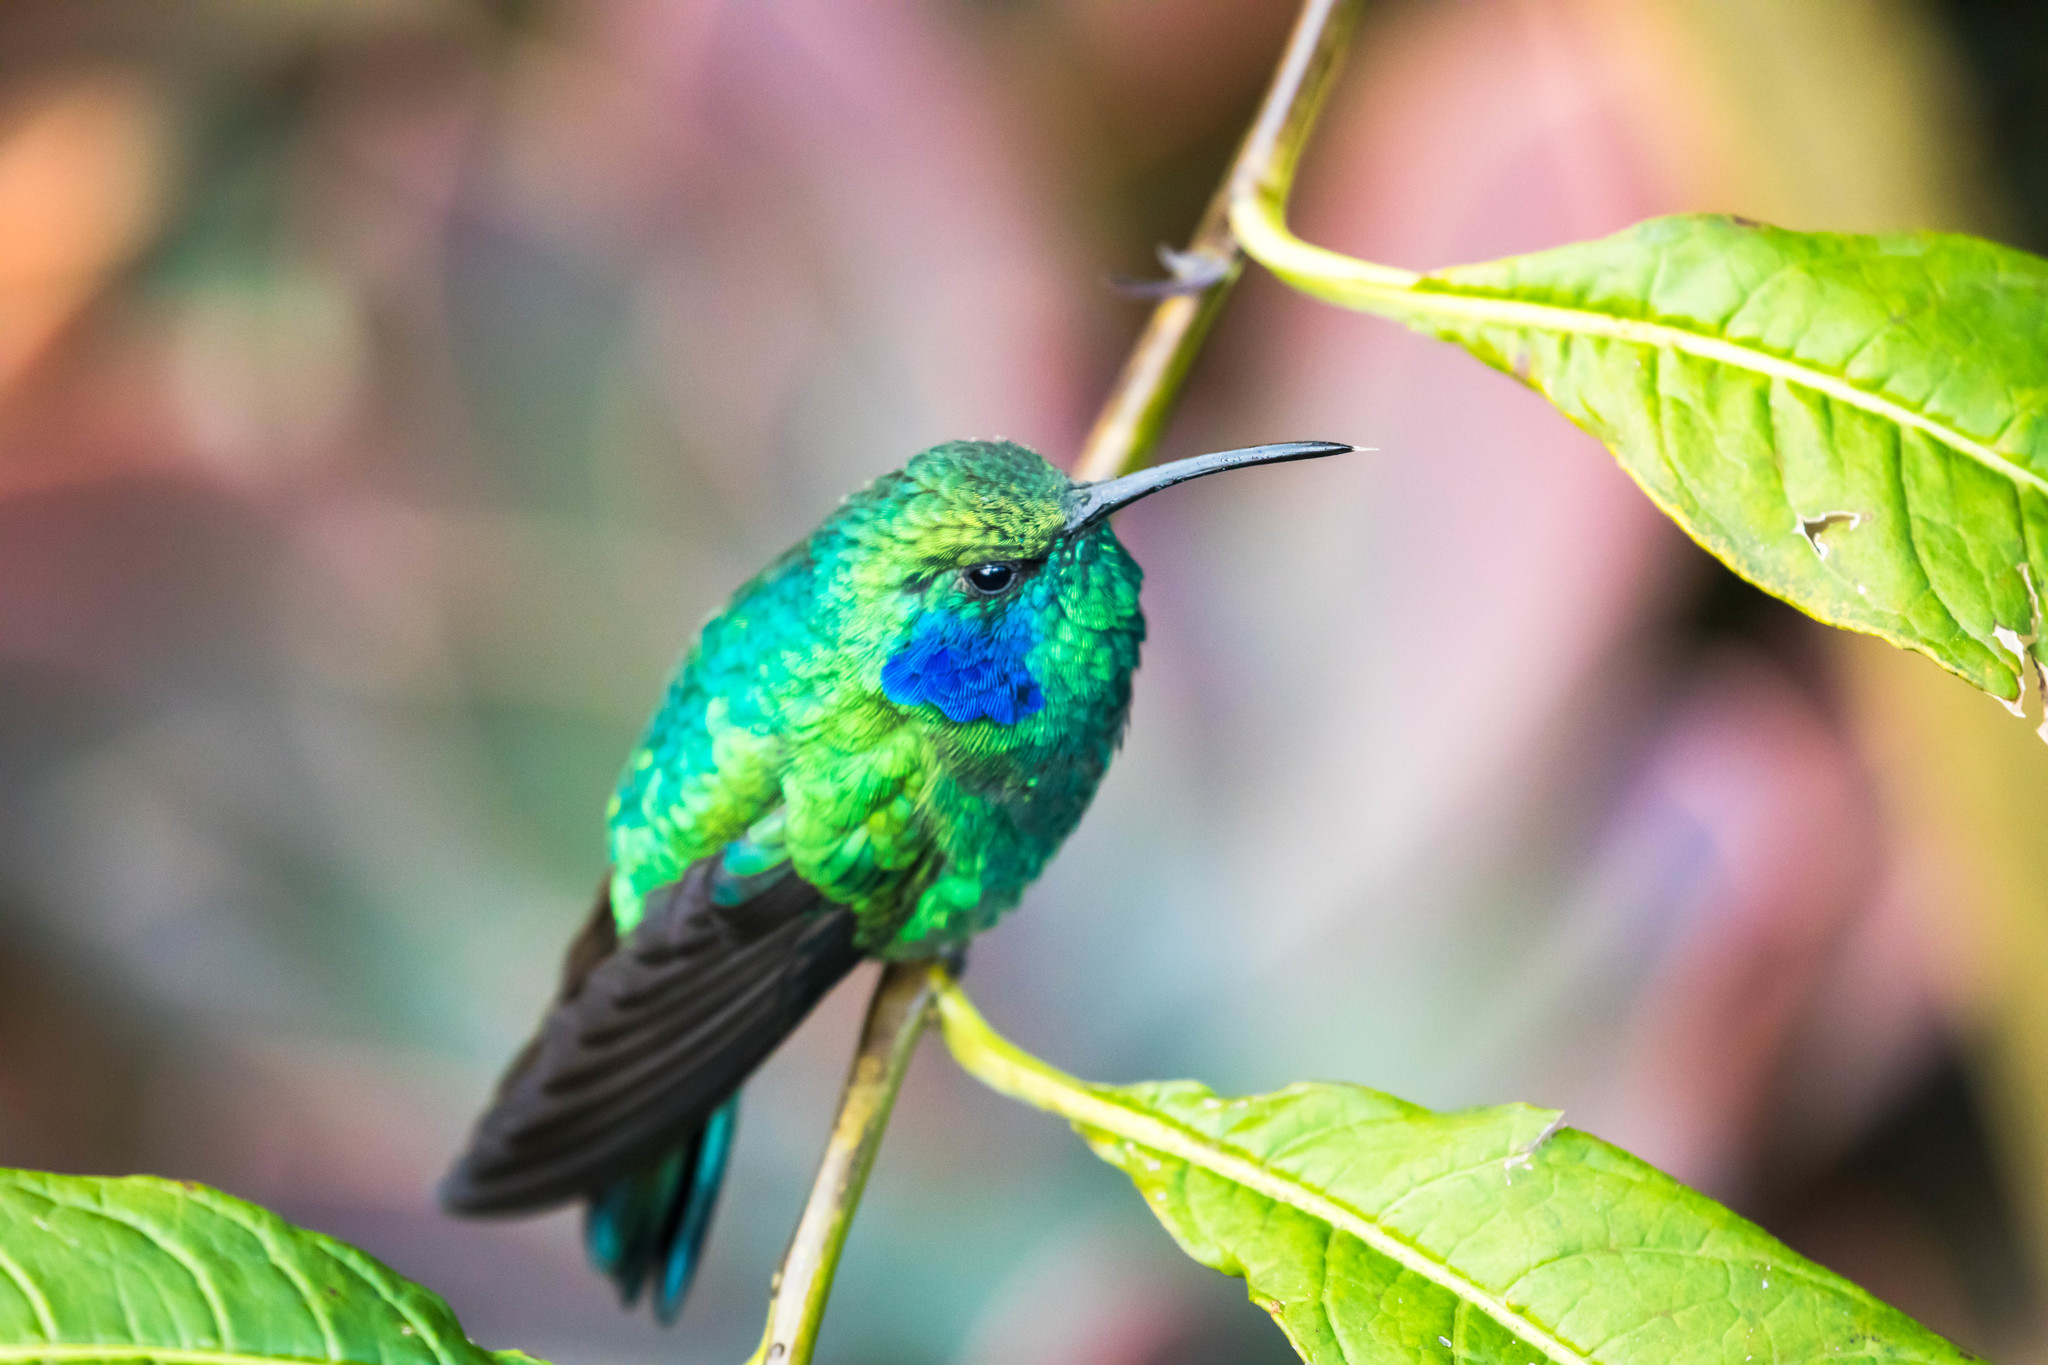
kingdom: Animalia
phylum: Chordata
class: Aves
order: Apodiformes
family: Trochilidae
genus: Colibri
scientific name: Colibri cyanotus
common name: Lesser violetear
